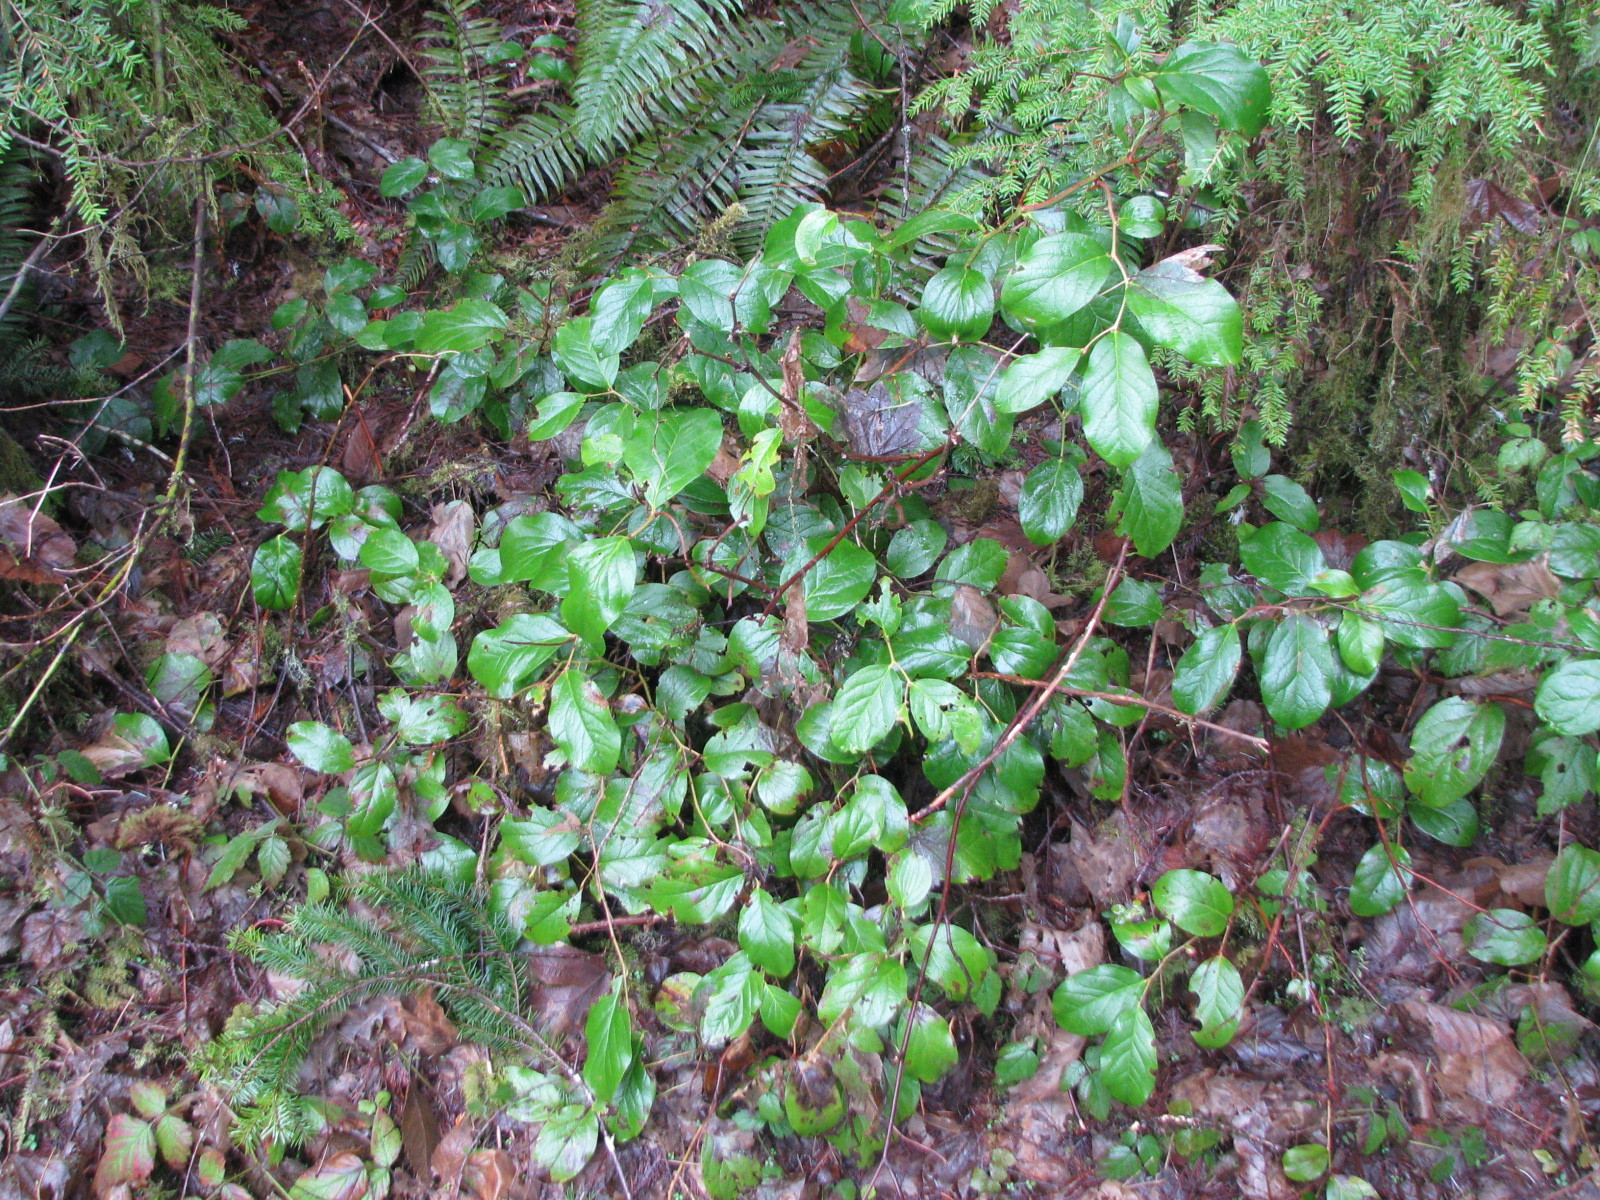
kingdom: Plantae
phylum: Tracheophyta
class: Magnoliopsida
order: Ericales
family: Ericaceae
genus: Gaultheria
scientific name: Gaultheria shallon
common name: Shallon
